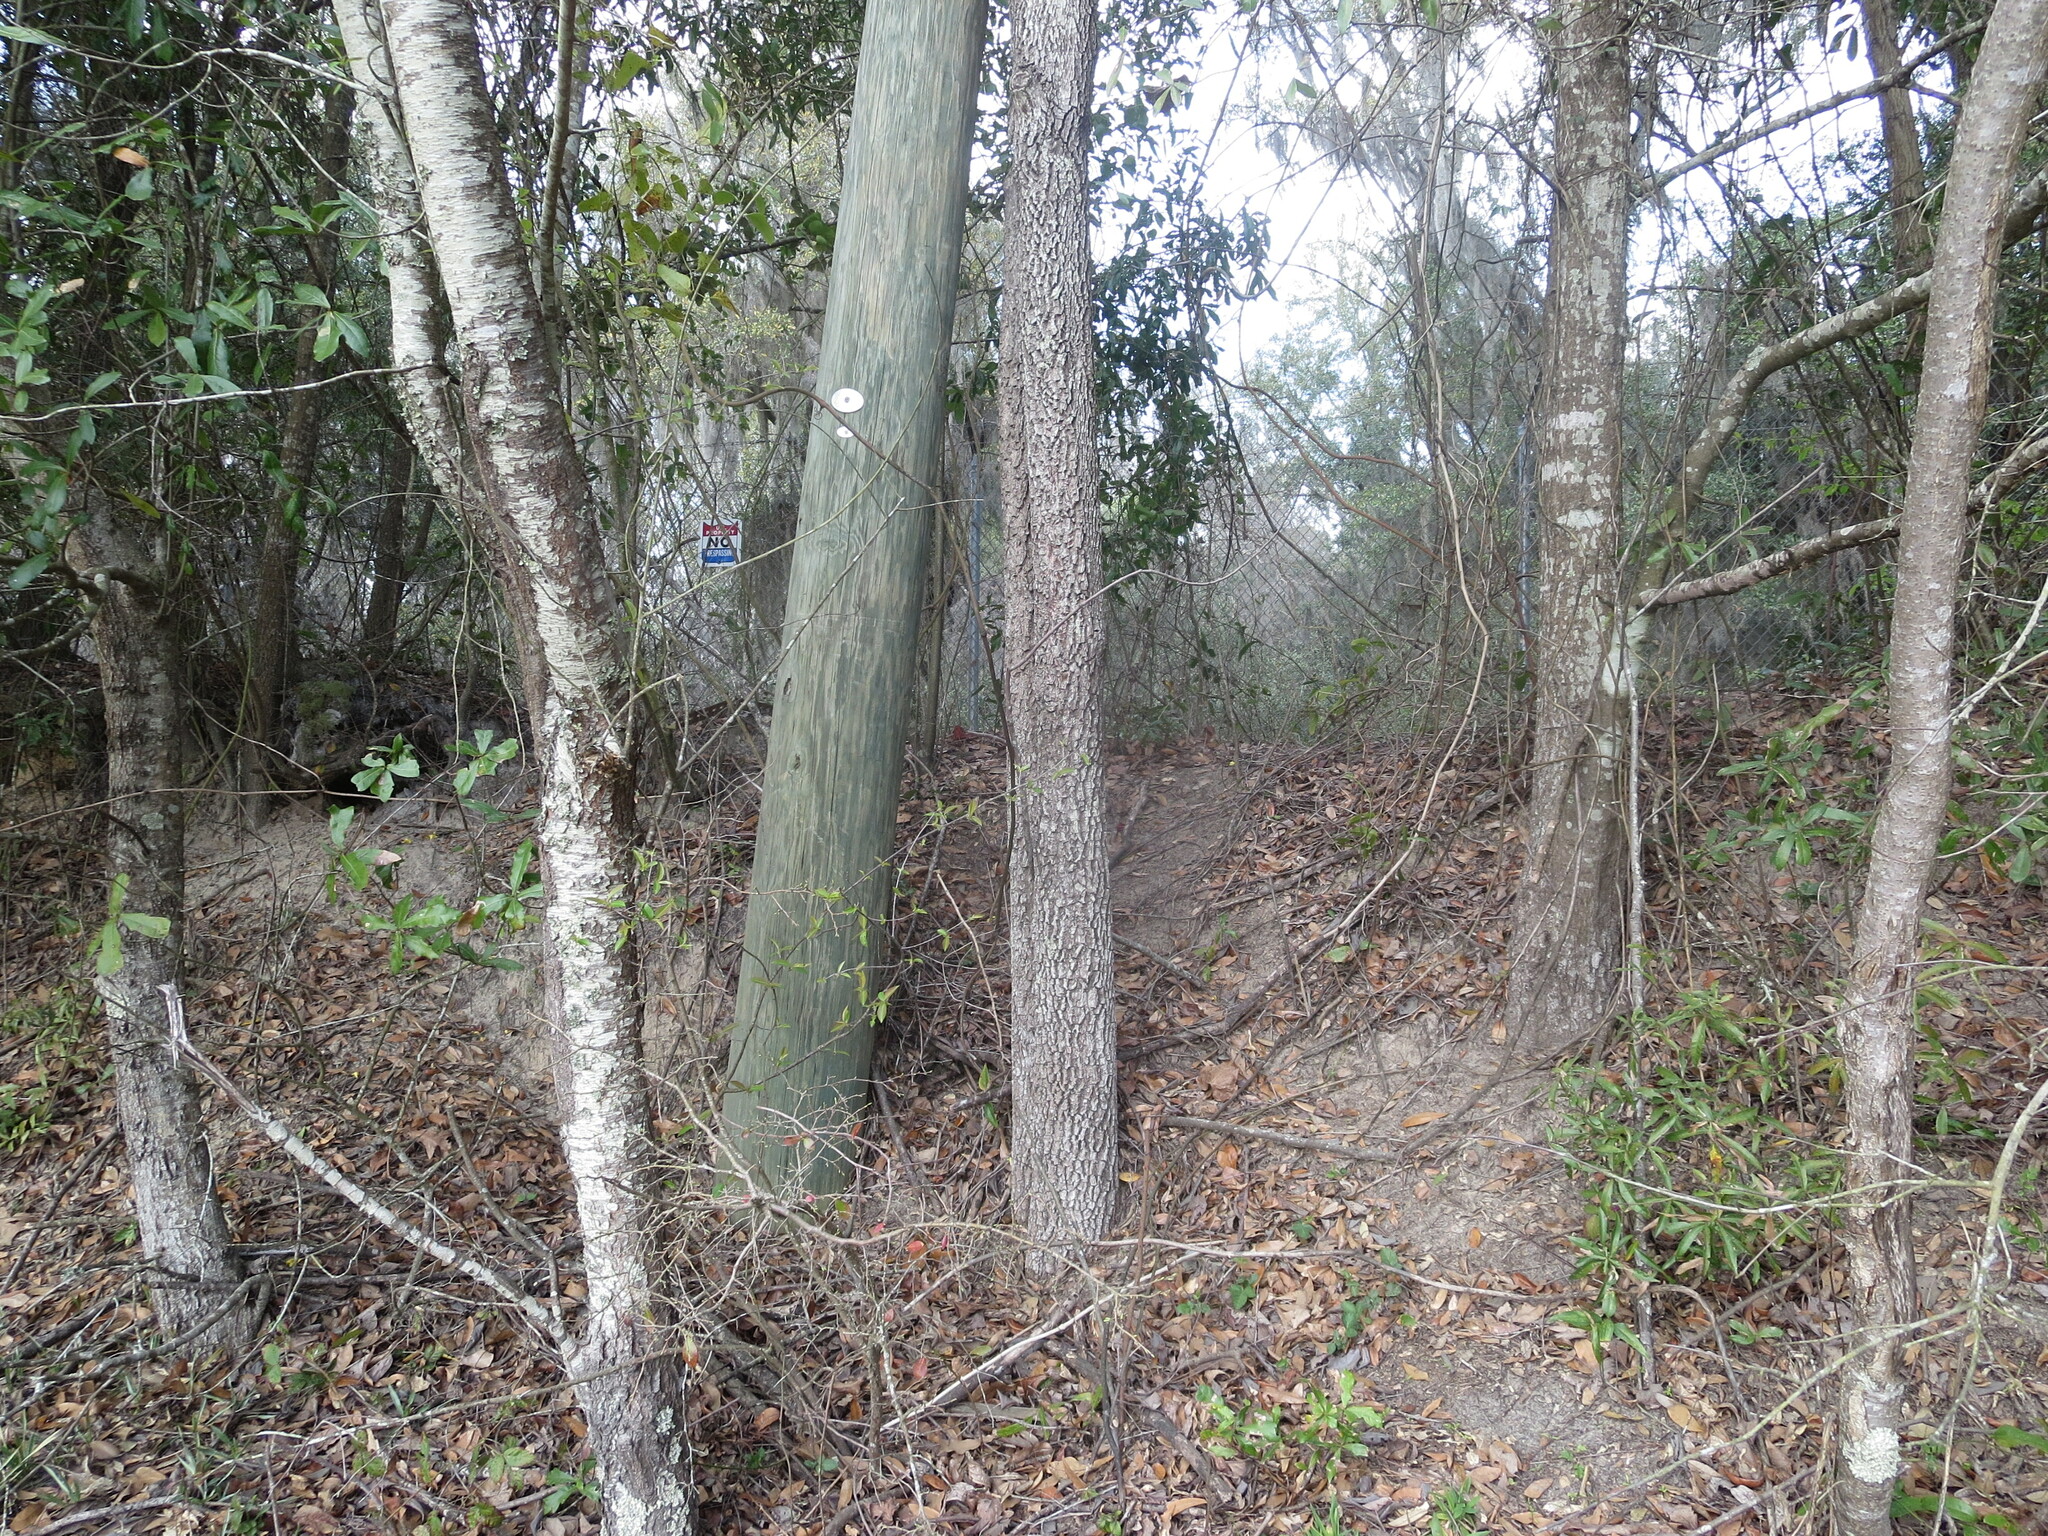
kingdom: Plantae
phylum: Tracheophyta
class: Magnoliopsida
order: Ericales
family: Ebenaceae
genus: Diospyros
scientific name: Diospyros virginiana
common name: Persimmon
